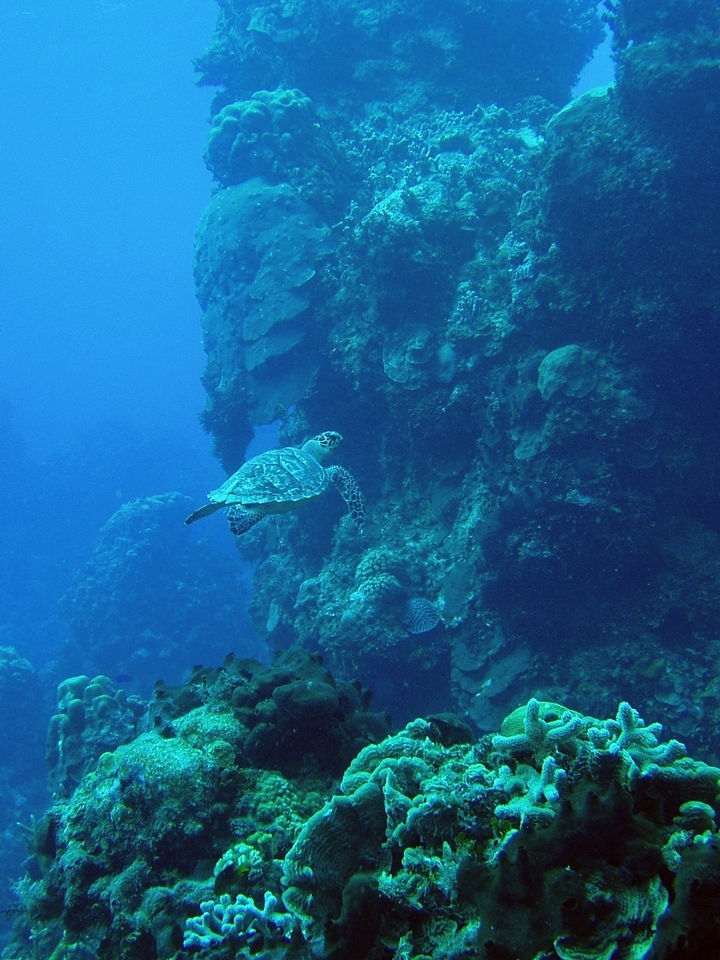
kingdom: Animalia
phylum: Chordata
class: Testudines
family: Cheloniidae
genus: Eretmochelys
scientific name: Eretmochelys imbricata
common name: Hawksbill turtle
